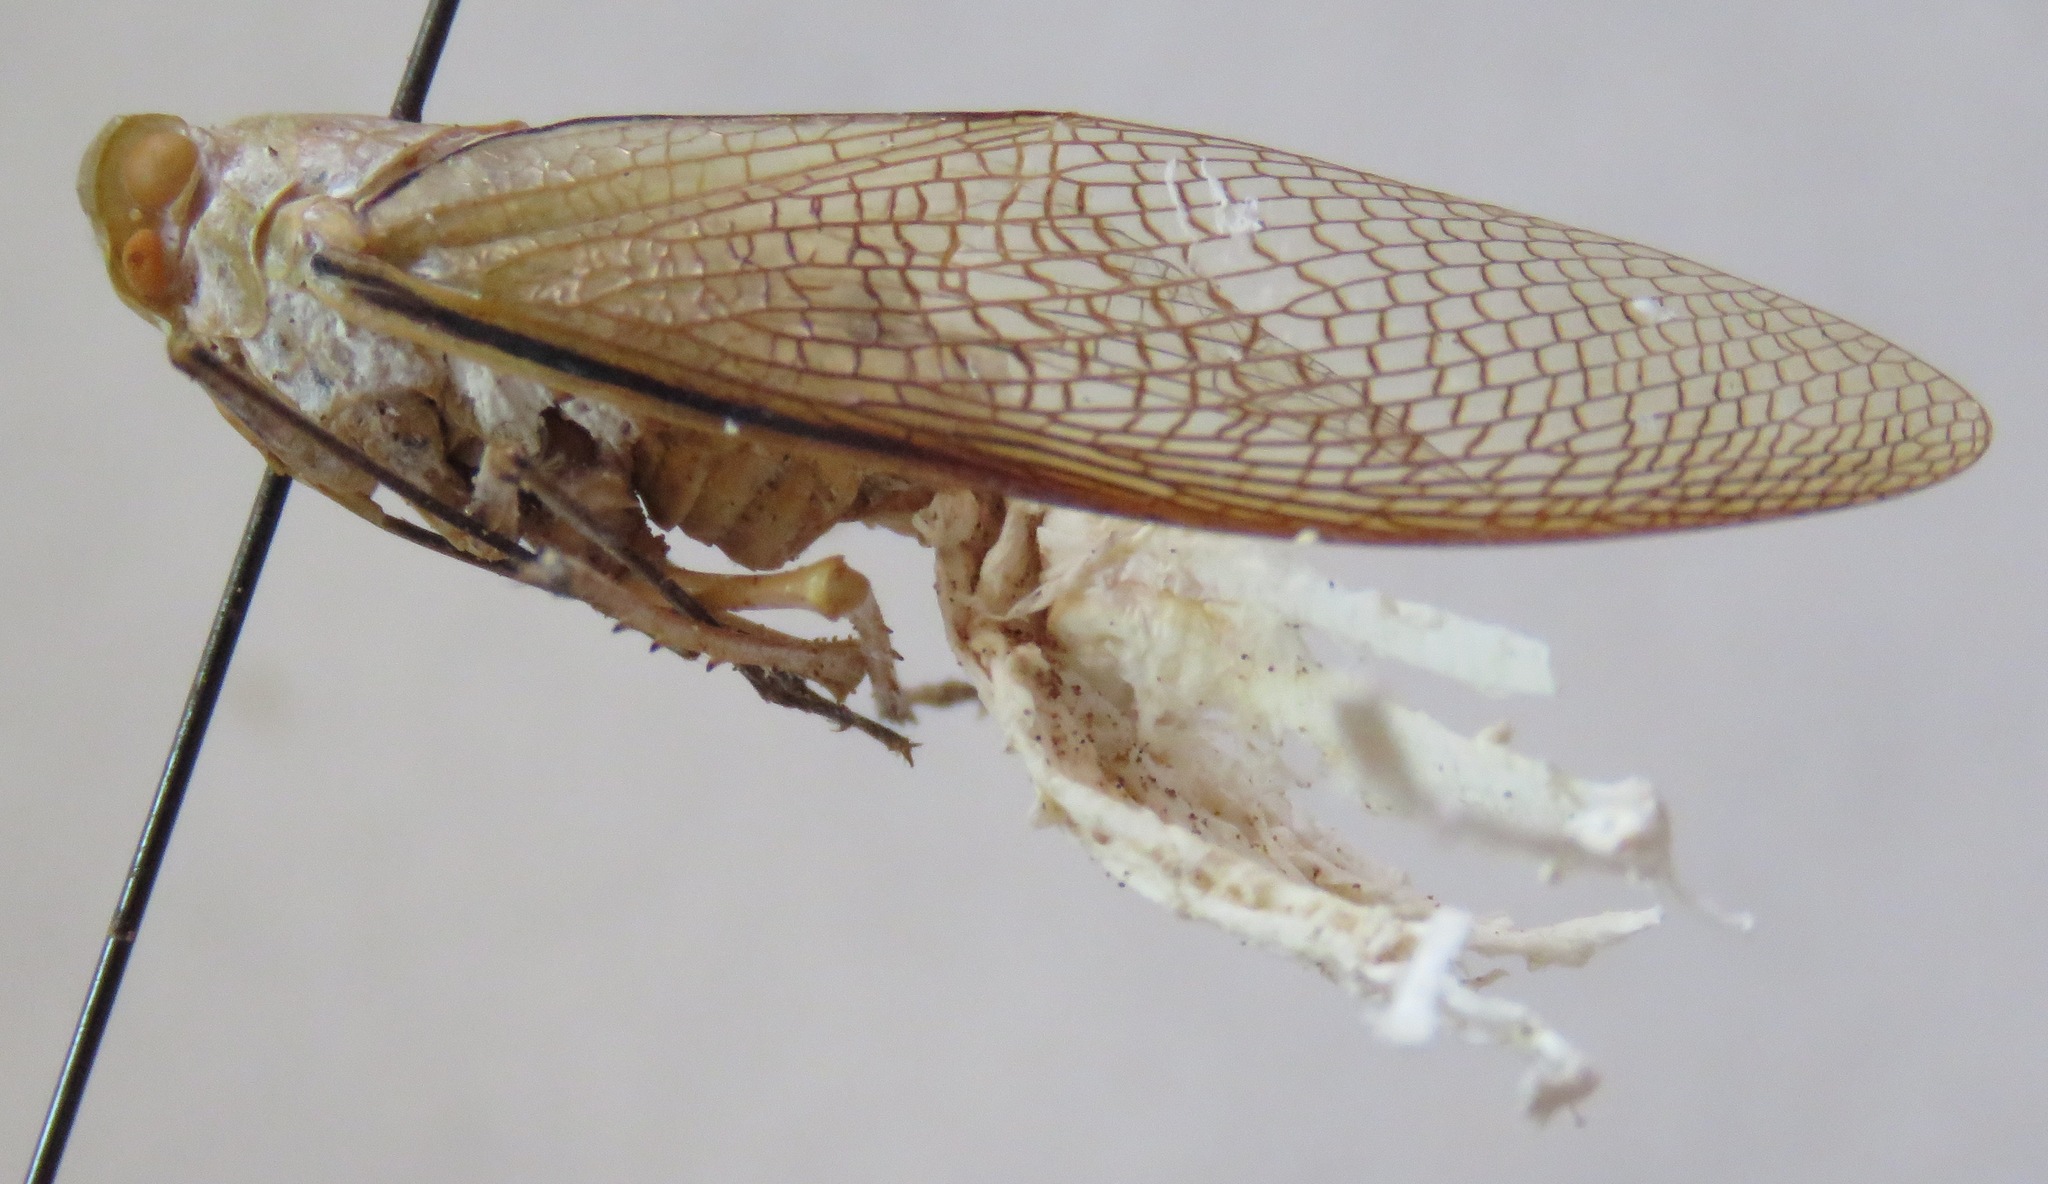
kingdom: Animalia
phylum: Arthropoda
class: Insecta
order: Hemiptera
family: Fulgoridae
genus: Pterodictya
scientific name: Pterodictya reticularis
